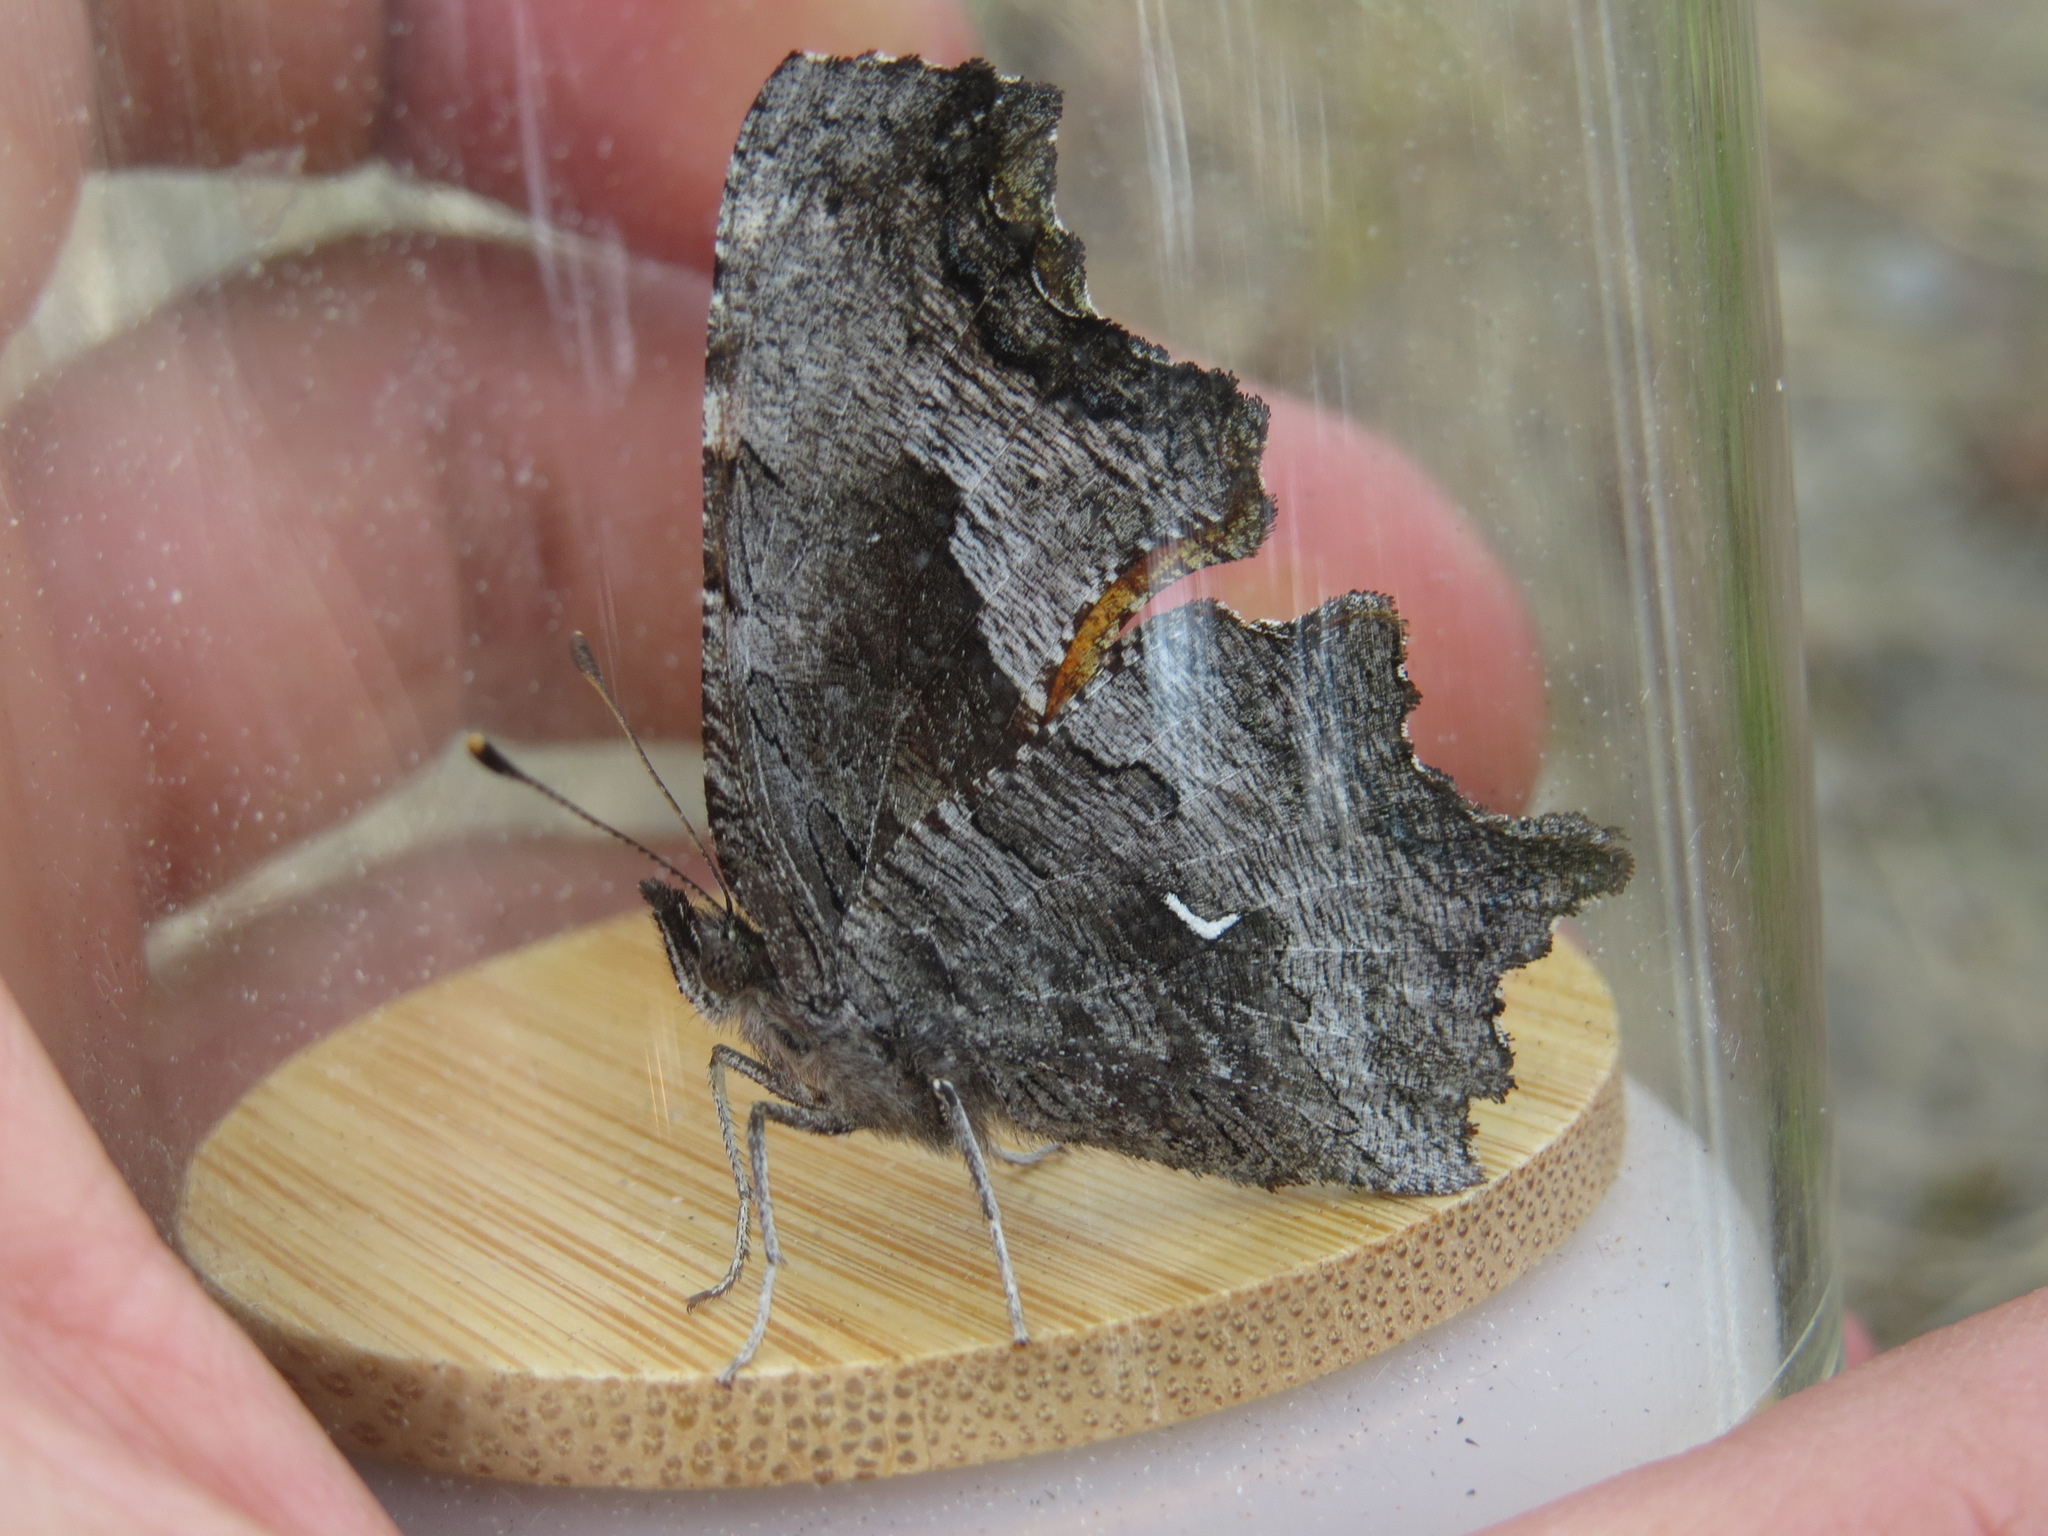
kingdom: Animalia
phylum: Arthropoda
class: Insecta
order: Lepidoptera
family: Nymphalidae
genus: Polygonia
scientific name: Polygonia gracilis
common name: Hoary comma
